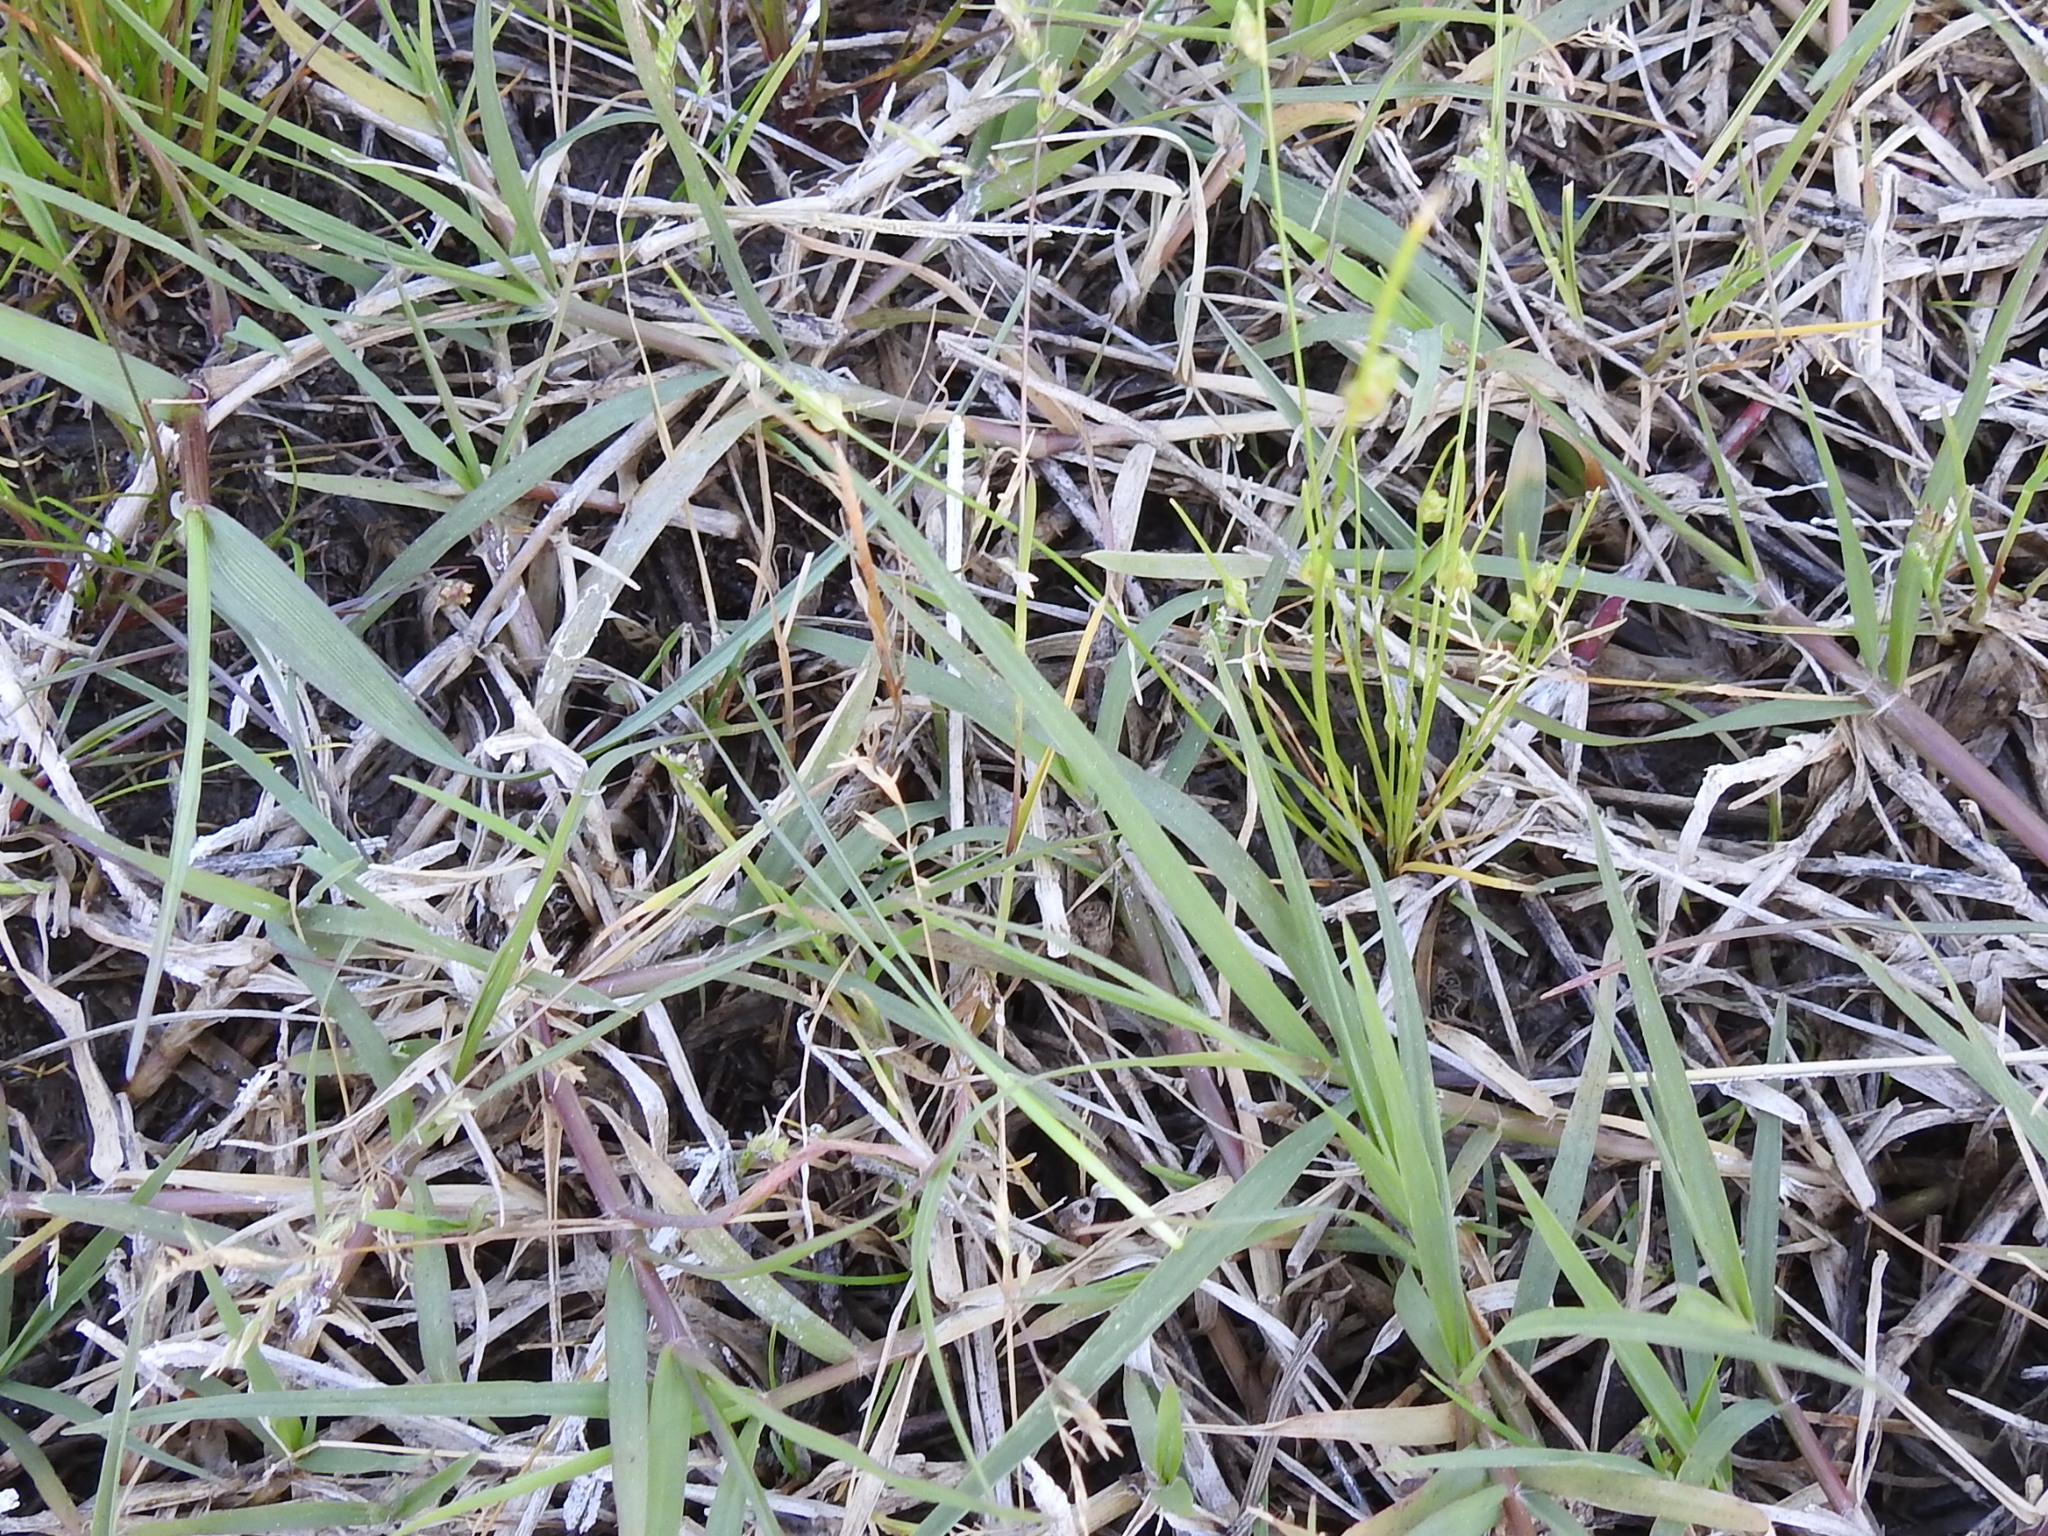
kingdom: Plantae
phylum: Tracheophyta
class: Liliopsida
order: Poales
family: Poaceae
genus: Poa
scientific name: Poa annua
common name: Annual bluegrass
